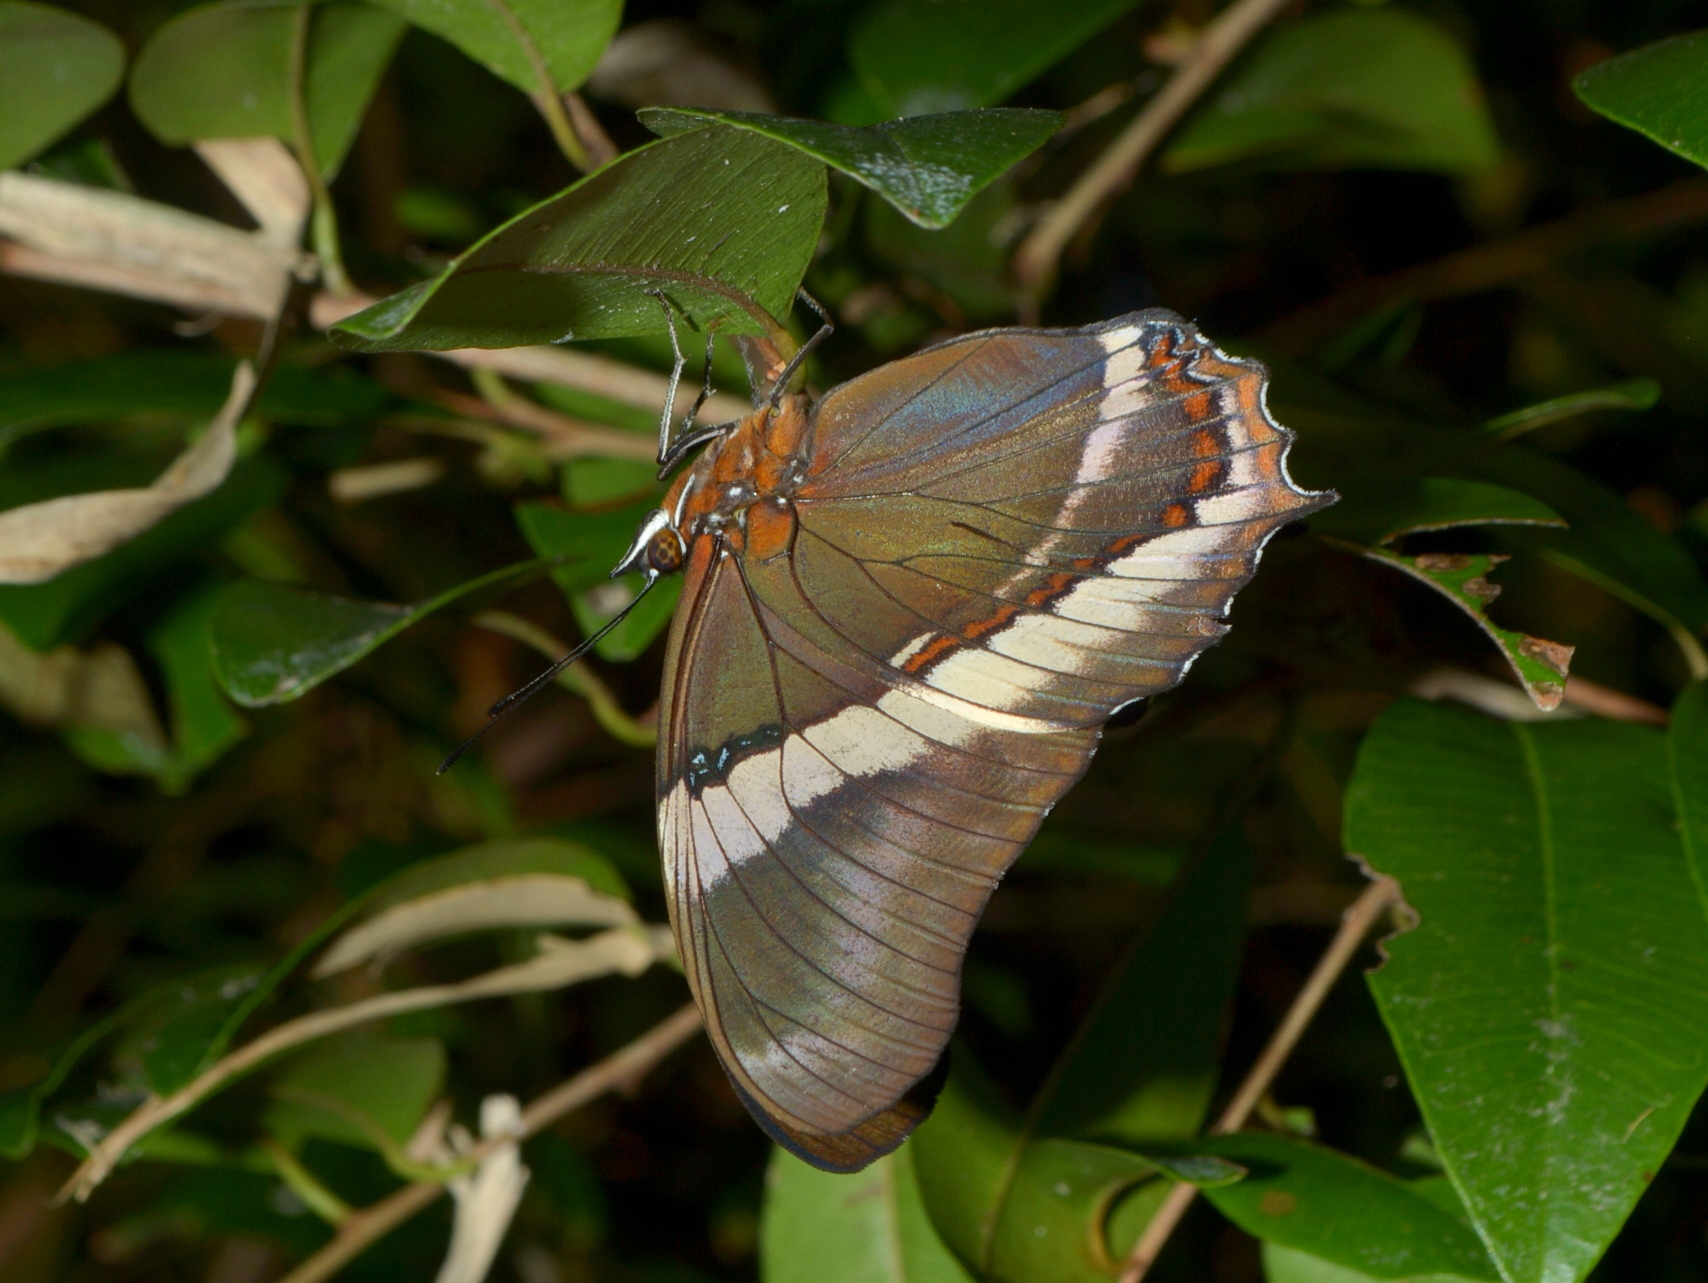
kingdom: Animalia
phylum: Arthropoda
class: Insecta
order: Lepidoptera
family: Nymphalidae
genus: Siproeta
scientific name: Siproeta epaphus
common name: Rusty-tipped page
